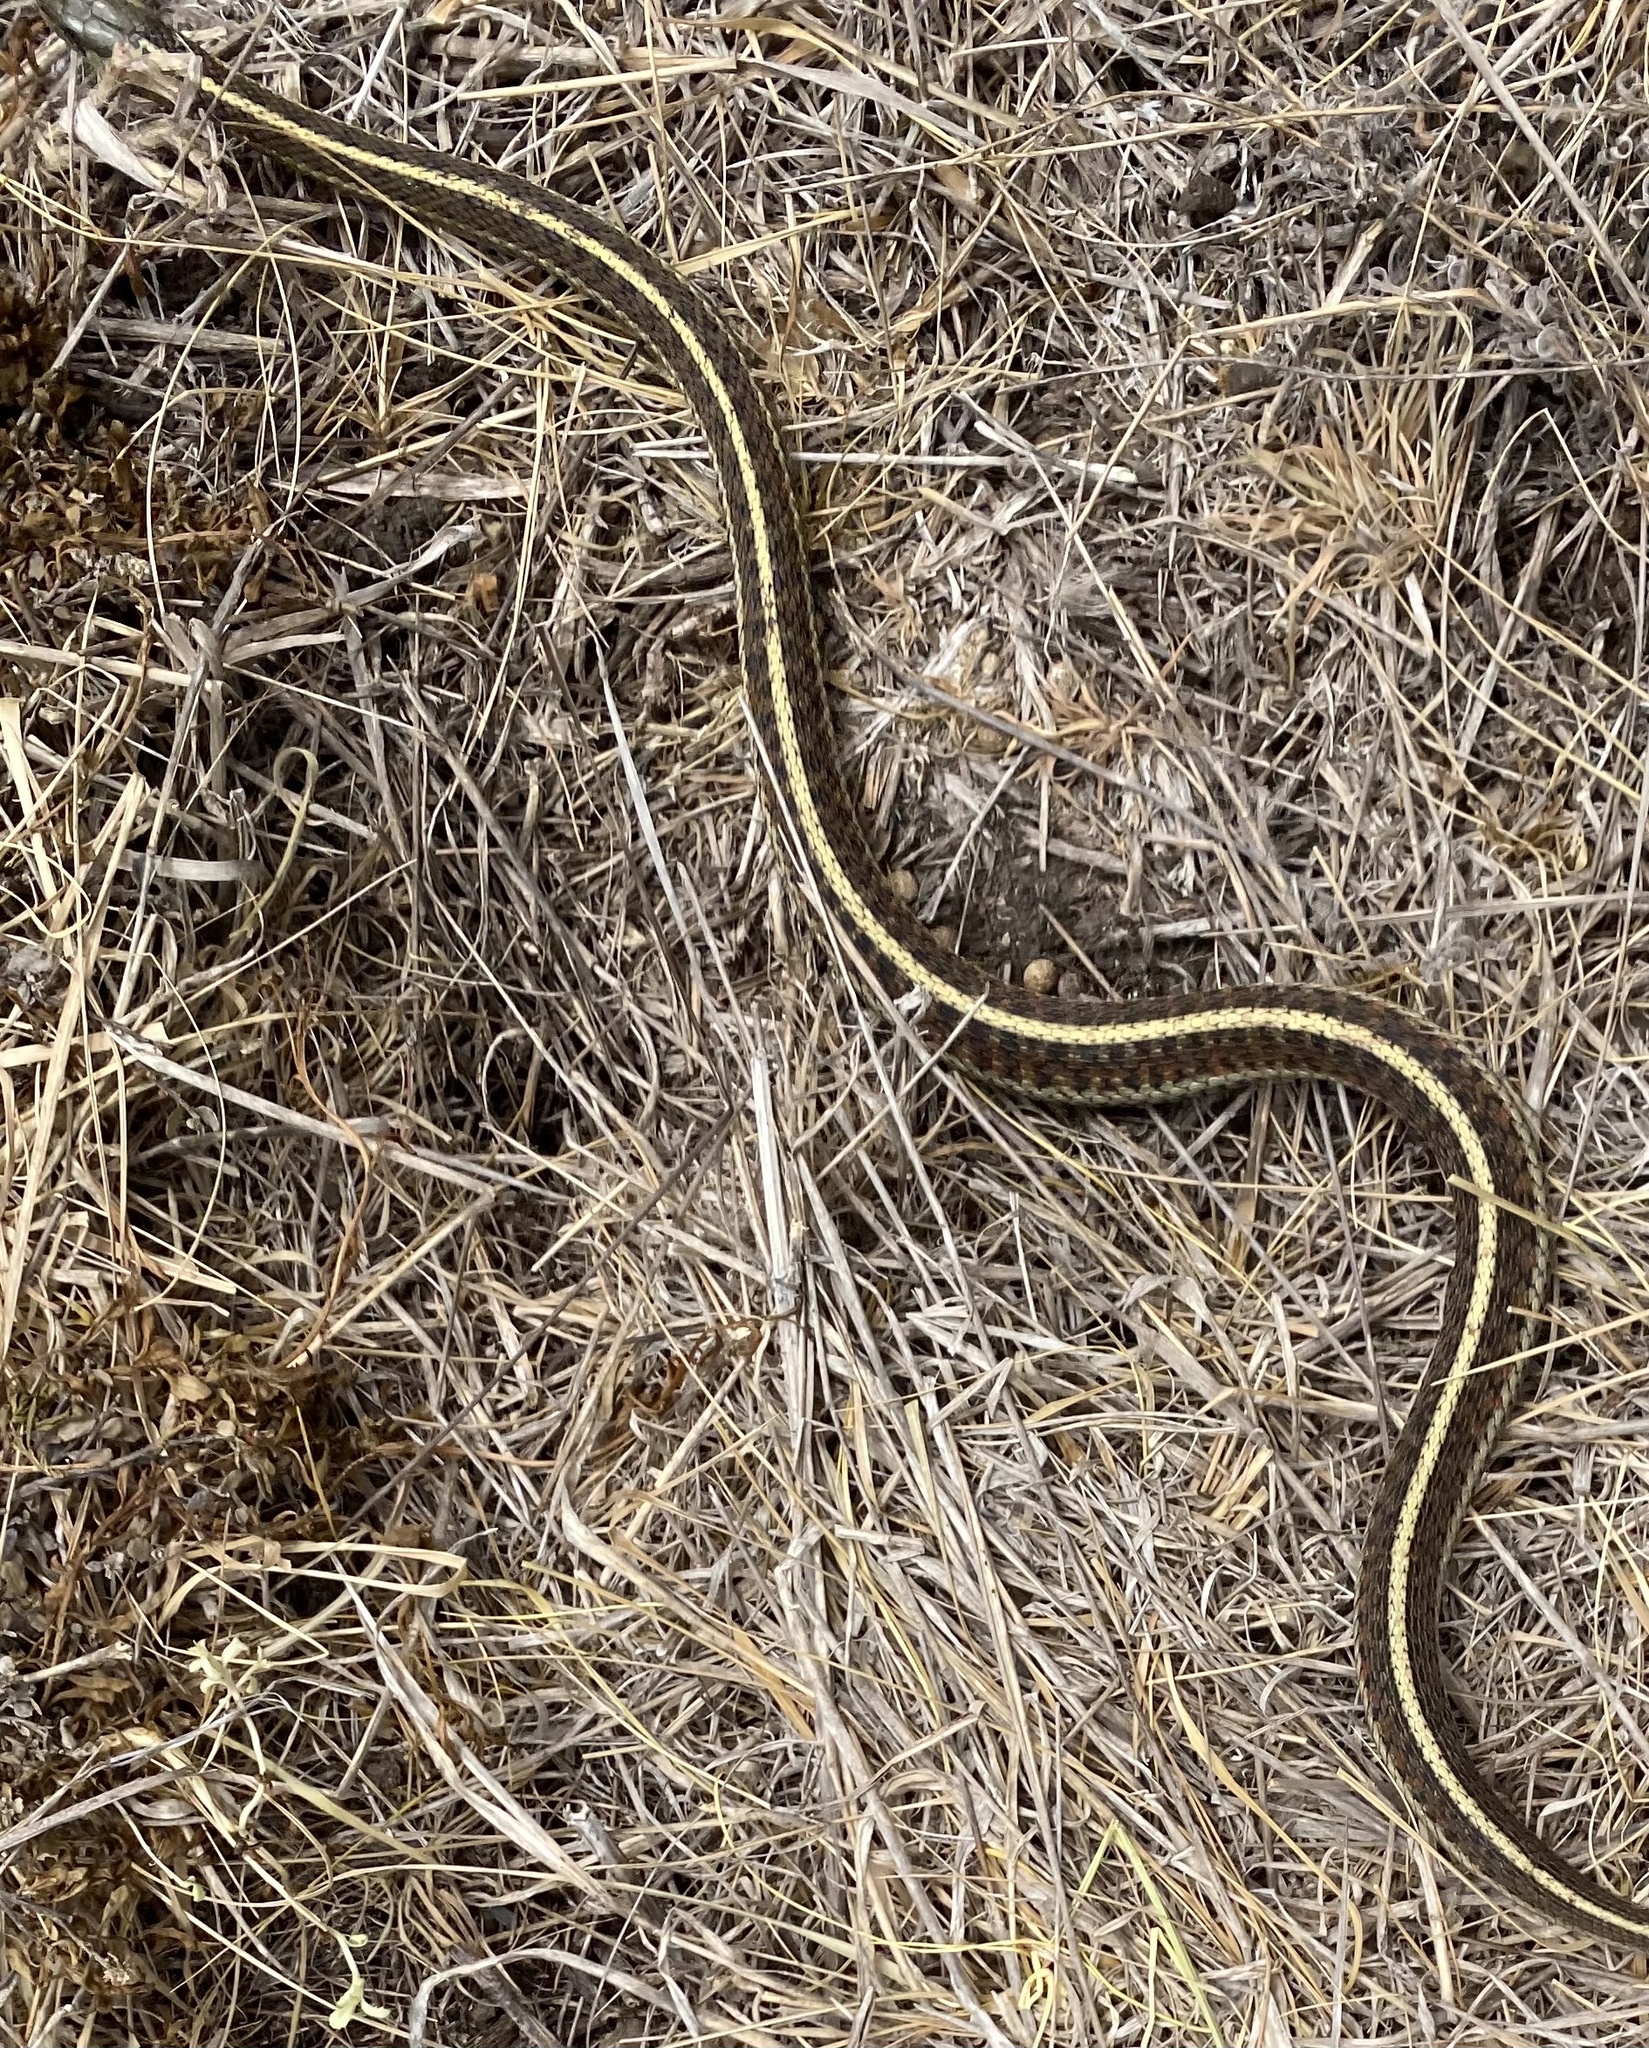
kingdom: Animalia
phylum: Chordata
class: Squamata
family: Colubridae
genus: Thamnophis
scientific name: Thamnophis elegans
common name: Western terrestrial garter snake
